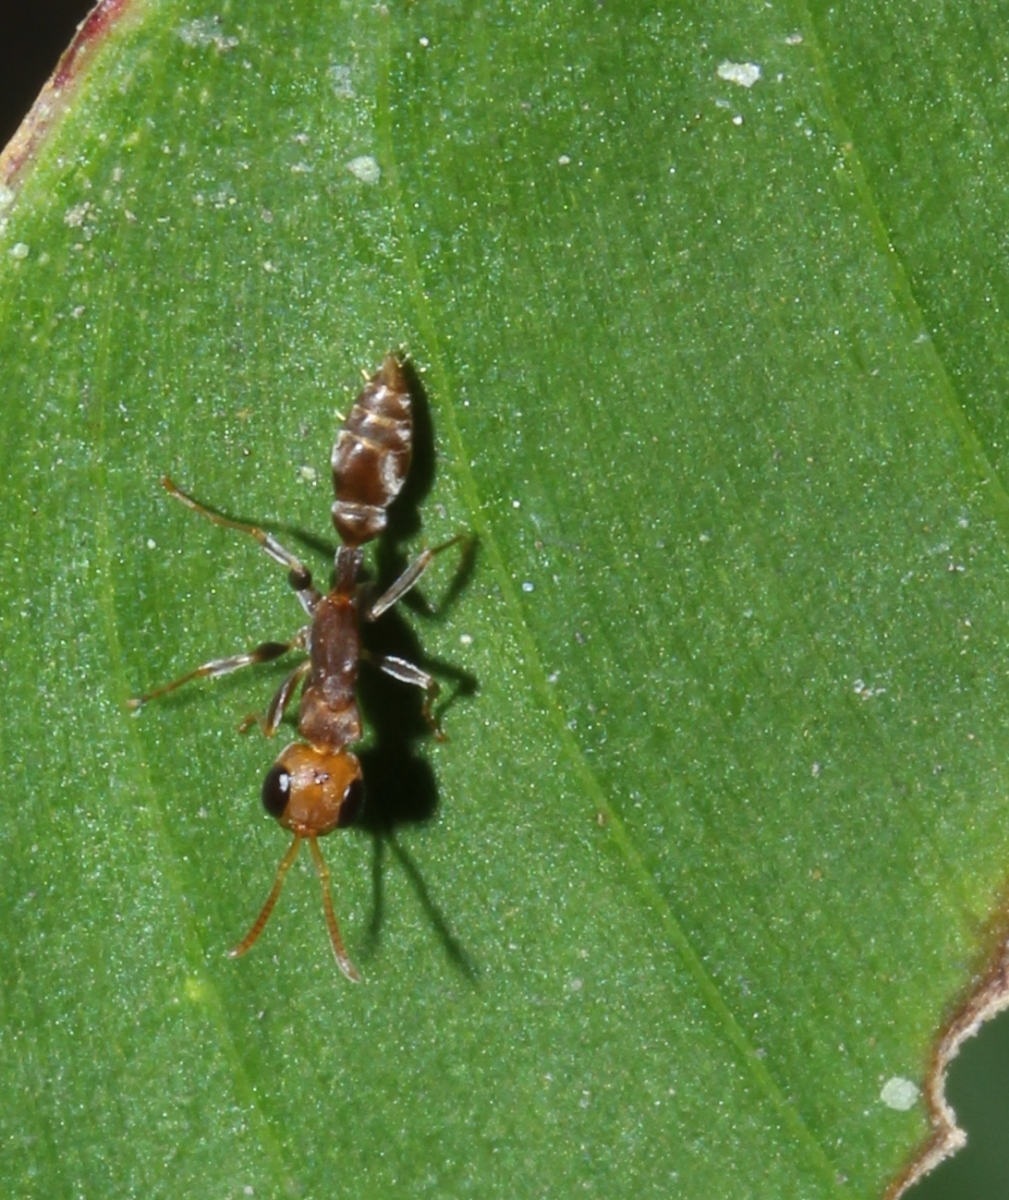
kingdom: Animalia
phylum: Arthropoda
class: Insecta
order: Hymenoptera
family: Formicidae
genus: Pseudomyrmex
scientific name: Pseudomyrmex
